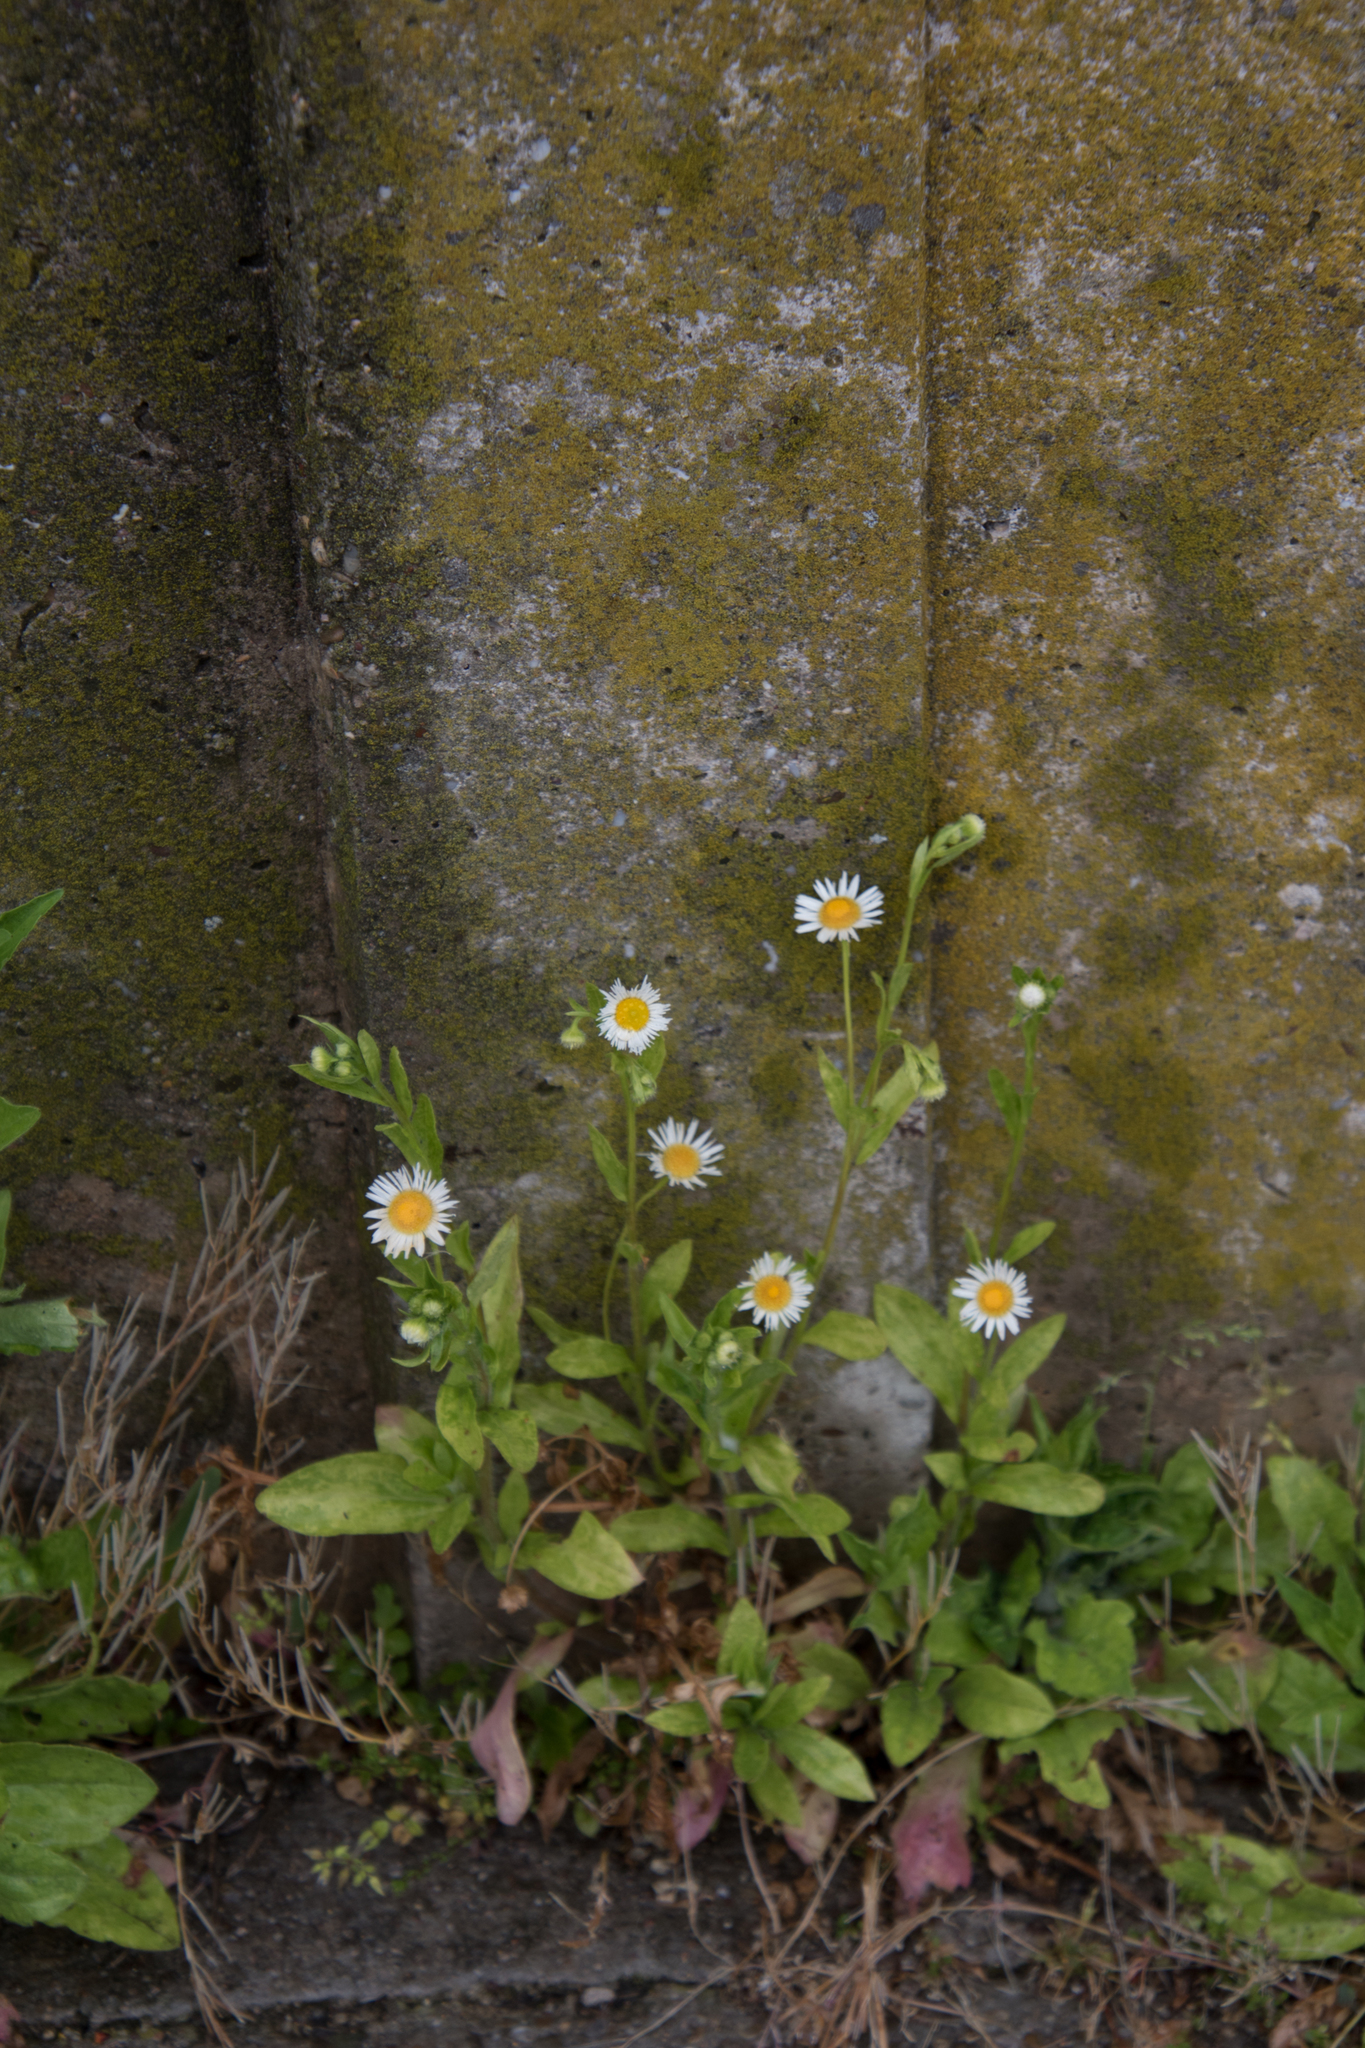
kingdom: Plantae
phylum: Tracheophyta
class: Magnoliopsida
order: Asterales
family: Asteraceae
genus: Erigeron
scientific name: Erigeron annuus
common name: Tall fleabane
